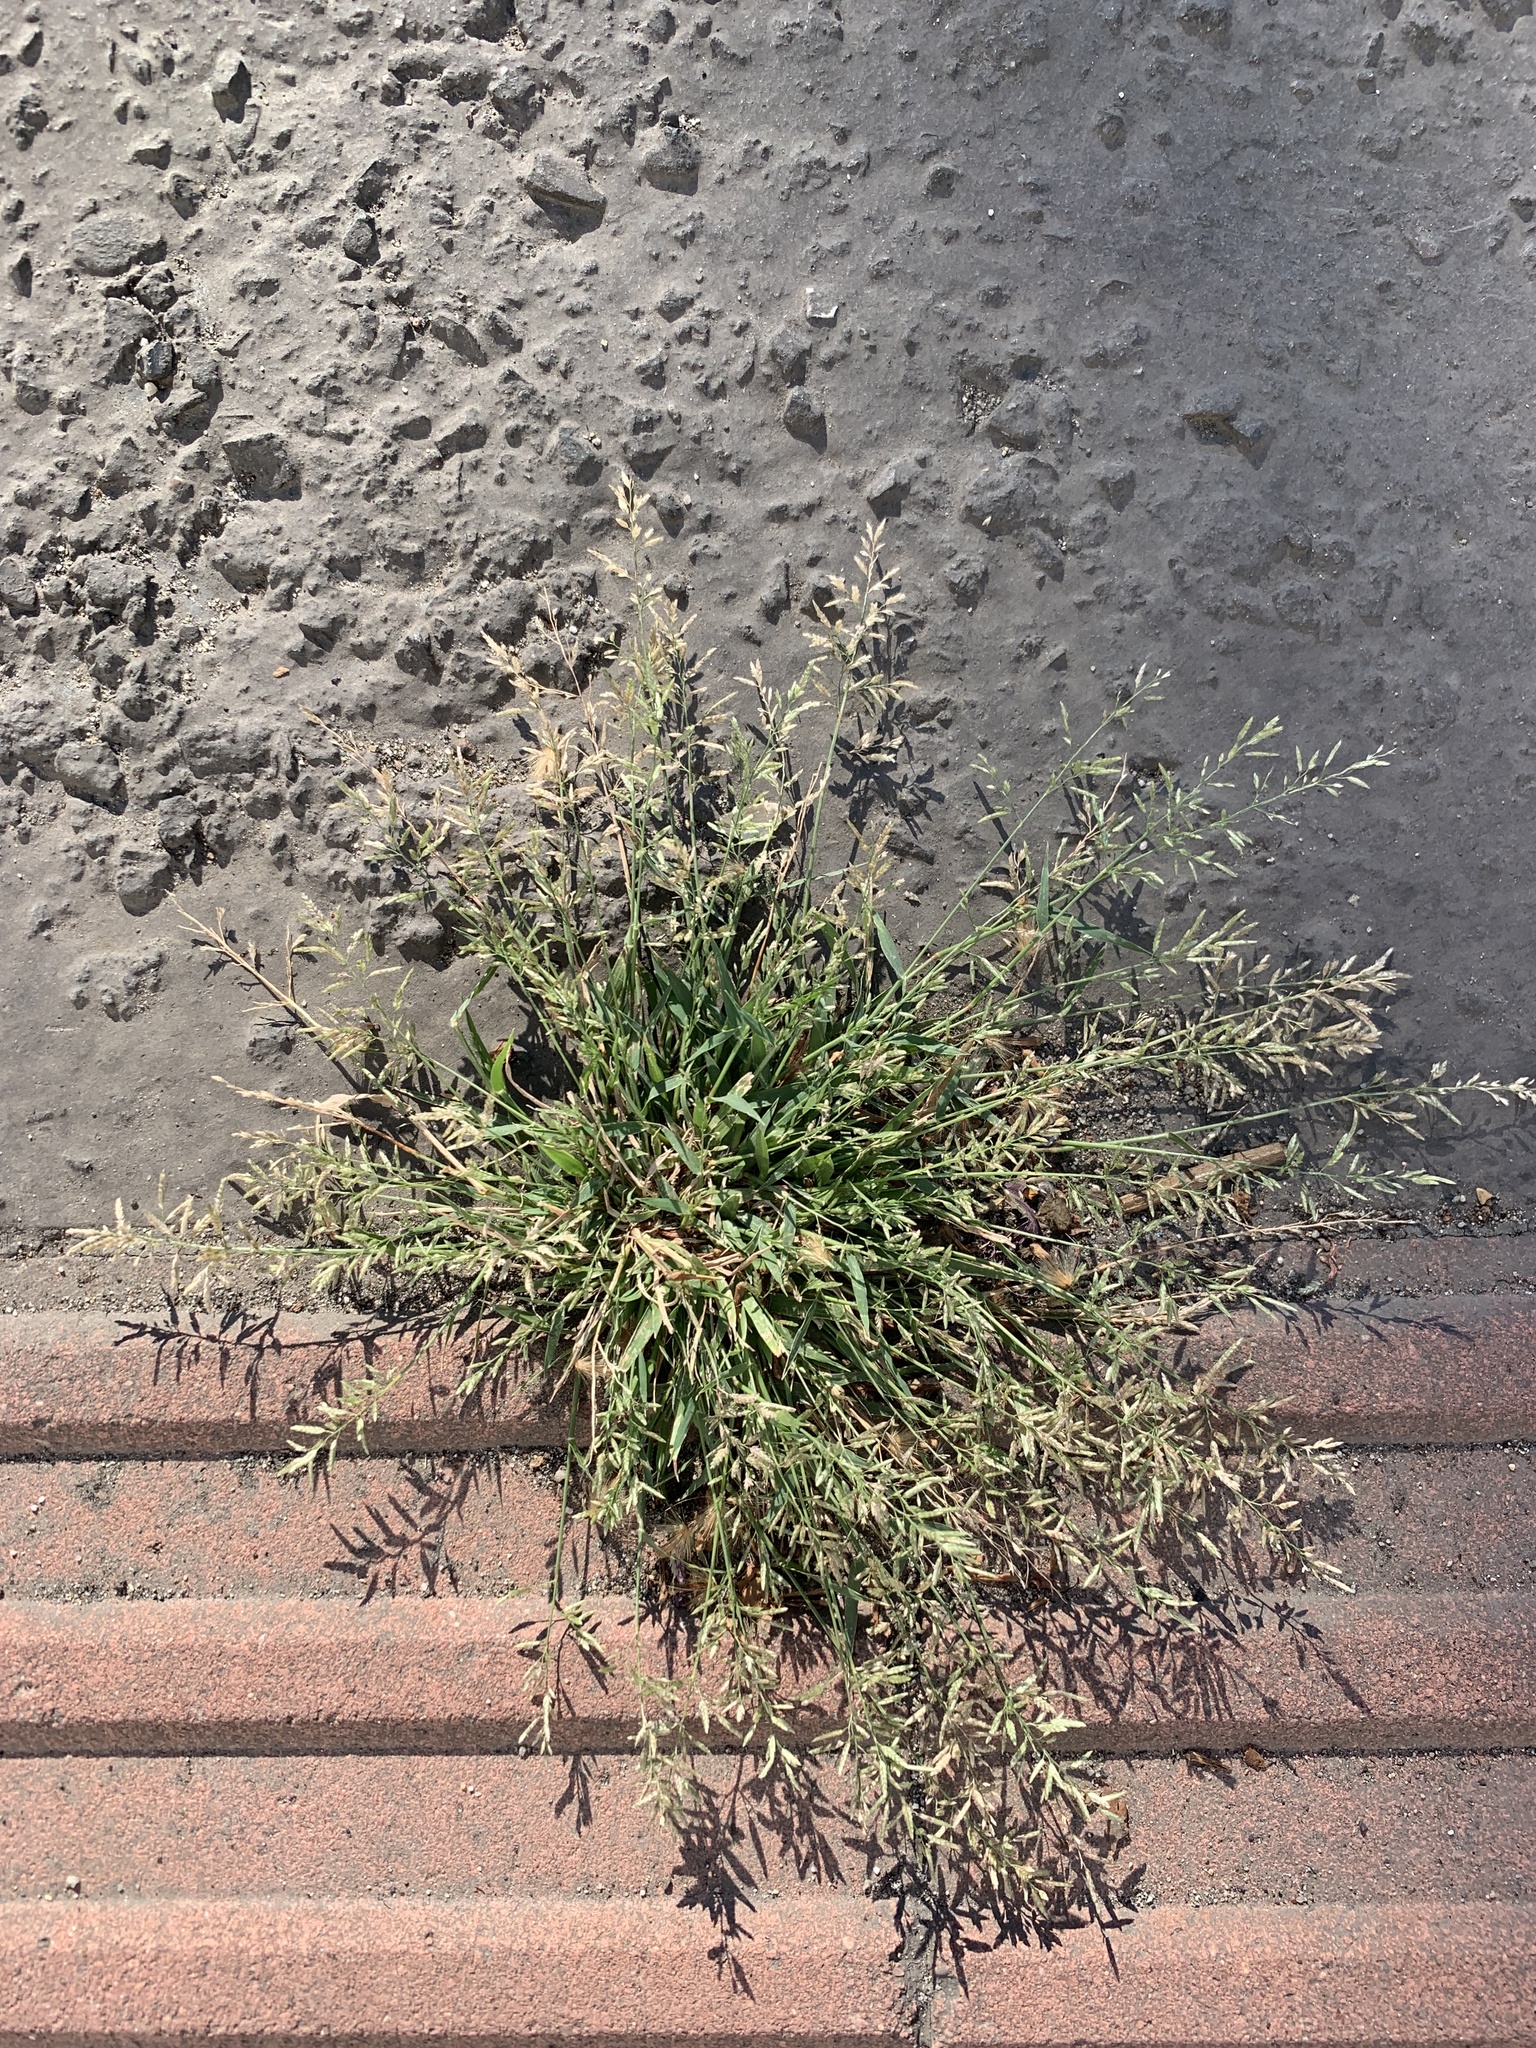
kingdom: Plantae
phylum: Tracheophyta
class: Liliopsida
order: Poales
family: Poaceae
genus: Eragrostis
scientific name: Eragrostis minor
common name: Small love-grass
